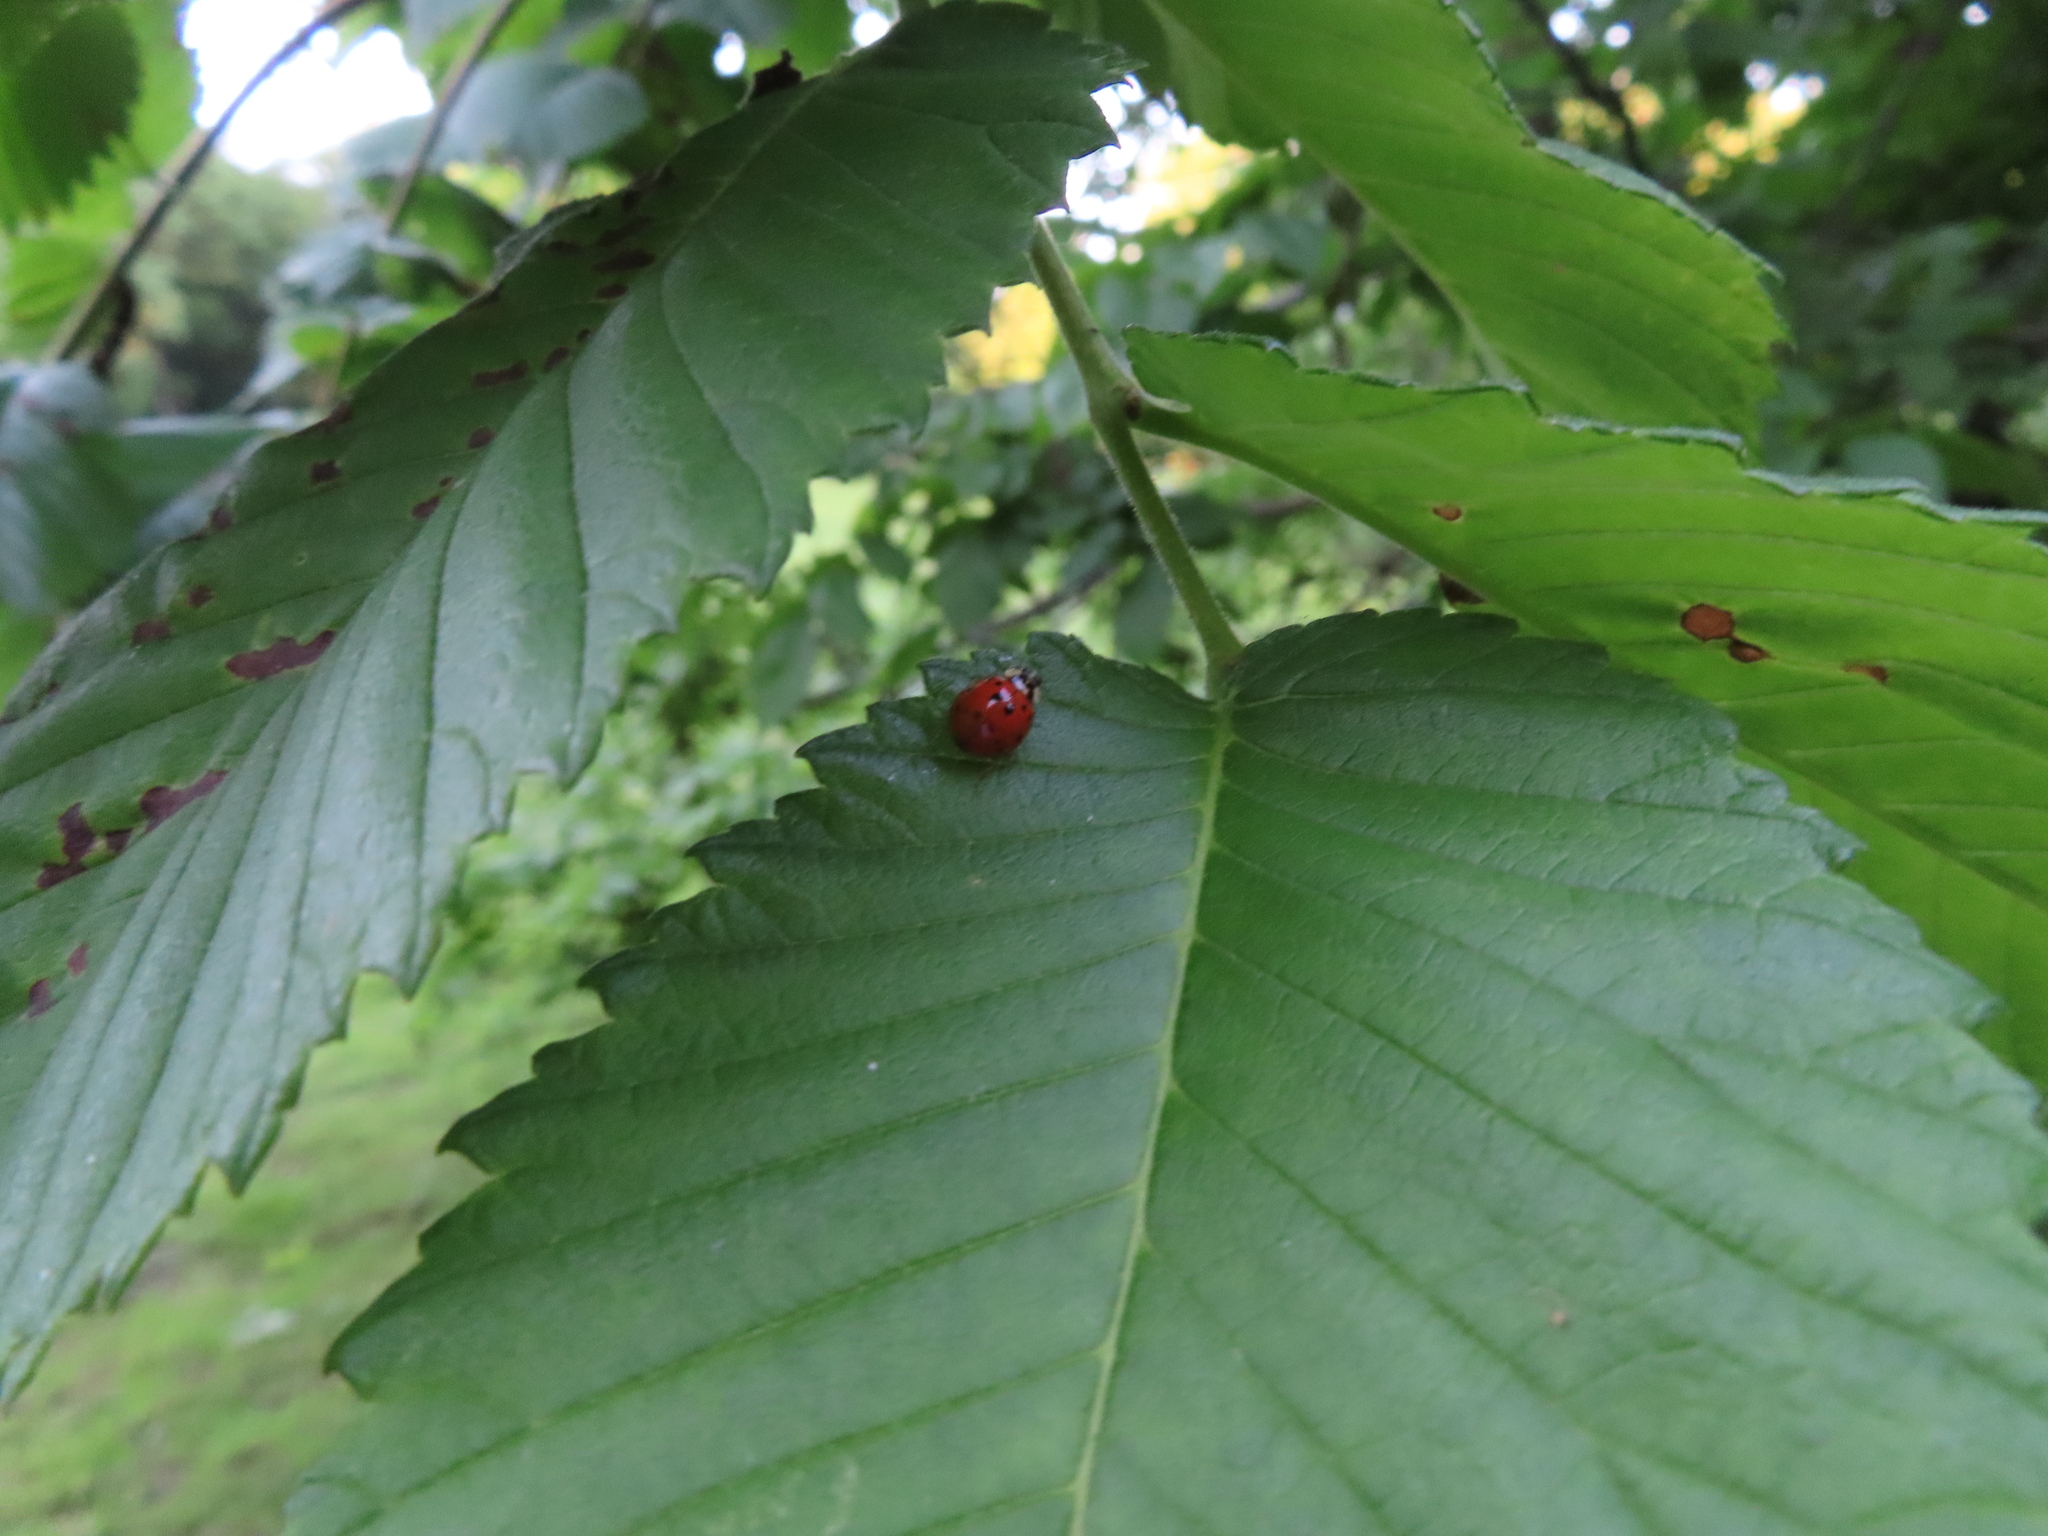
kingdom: Animalia
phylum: Arthropoda
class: Insecta
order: Coleoptera
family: Coccinellidae
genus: Harmonia
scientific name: Harmonia axyridis
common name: Harlequin ladybird
